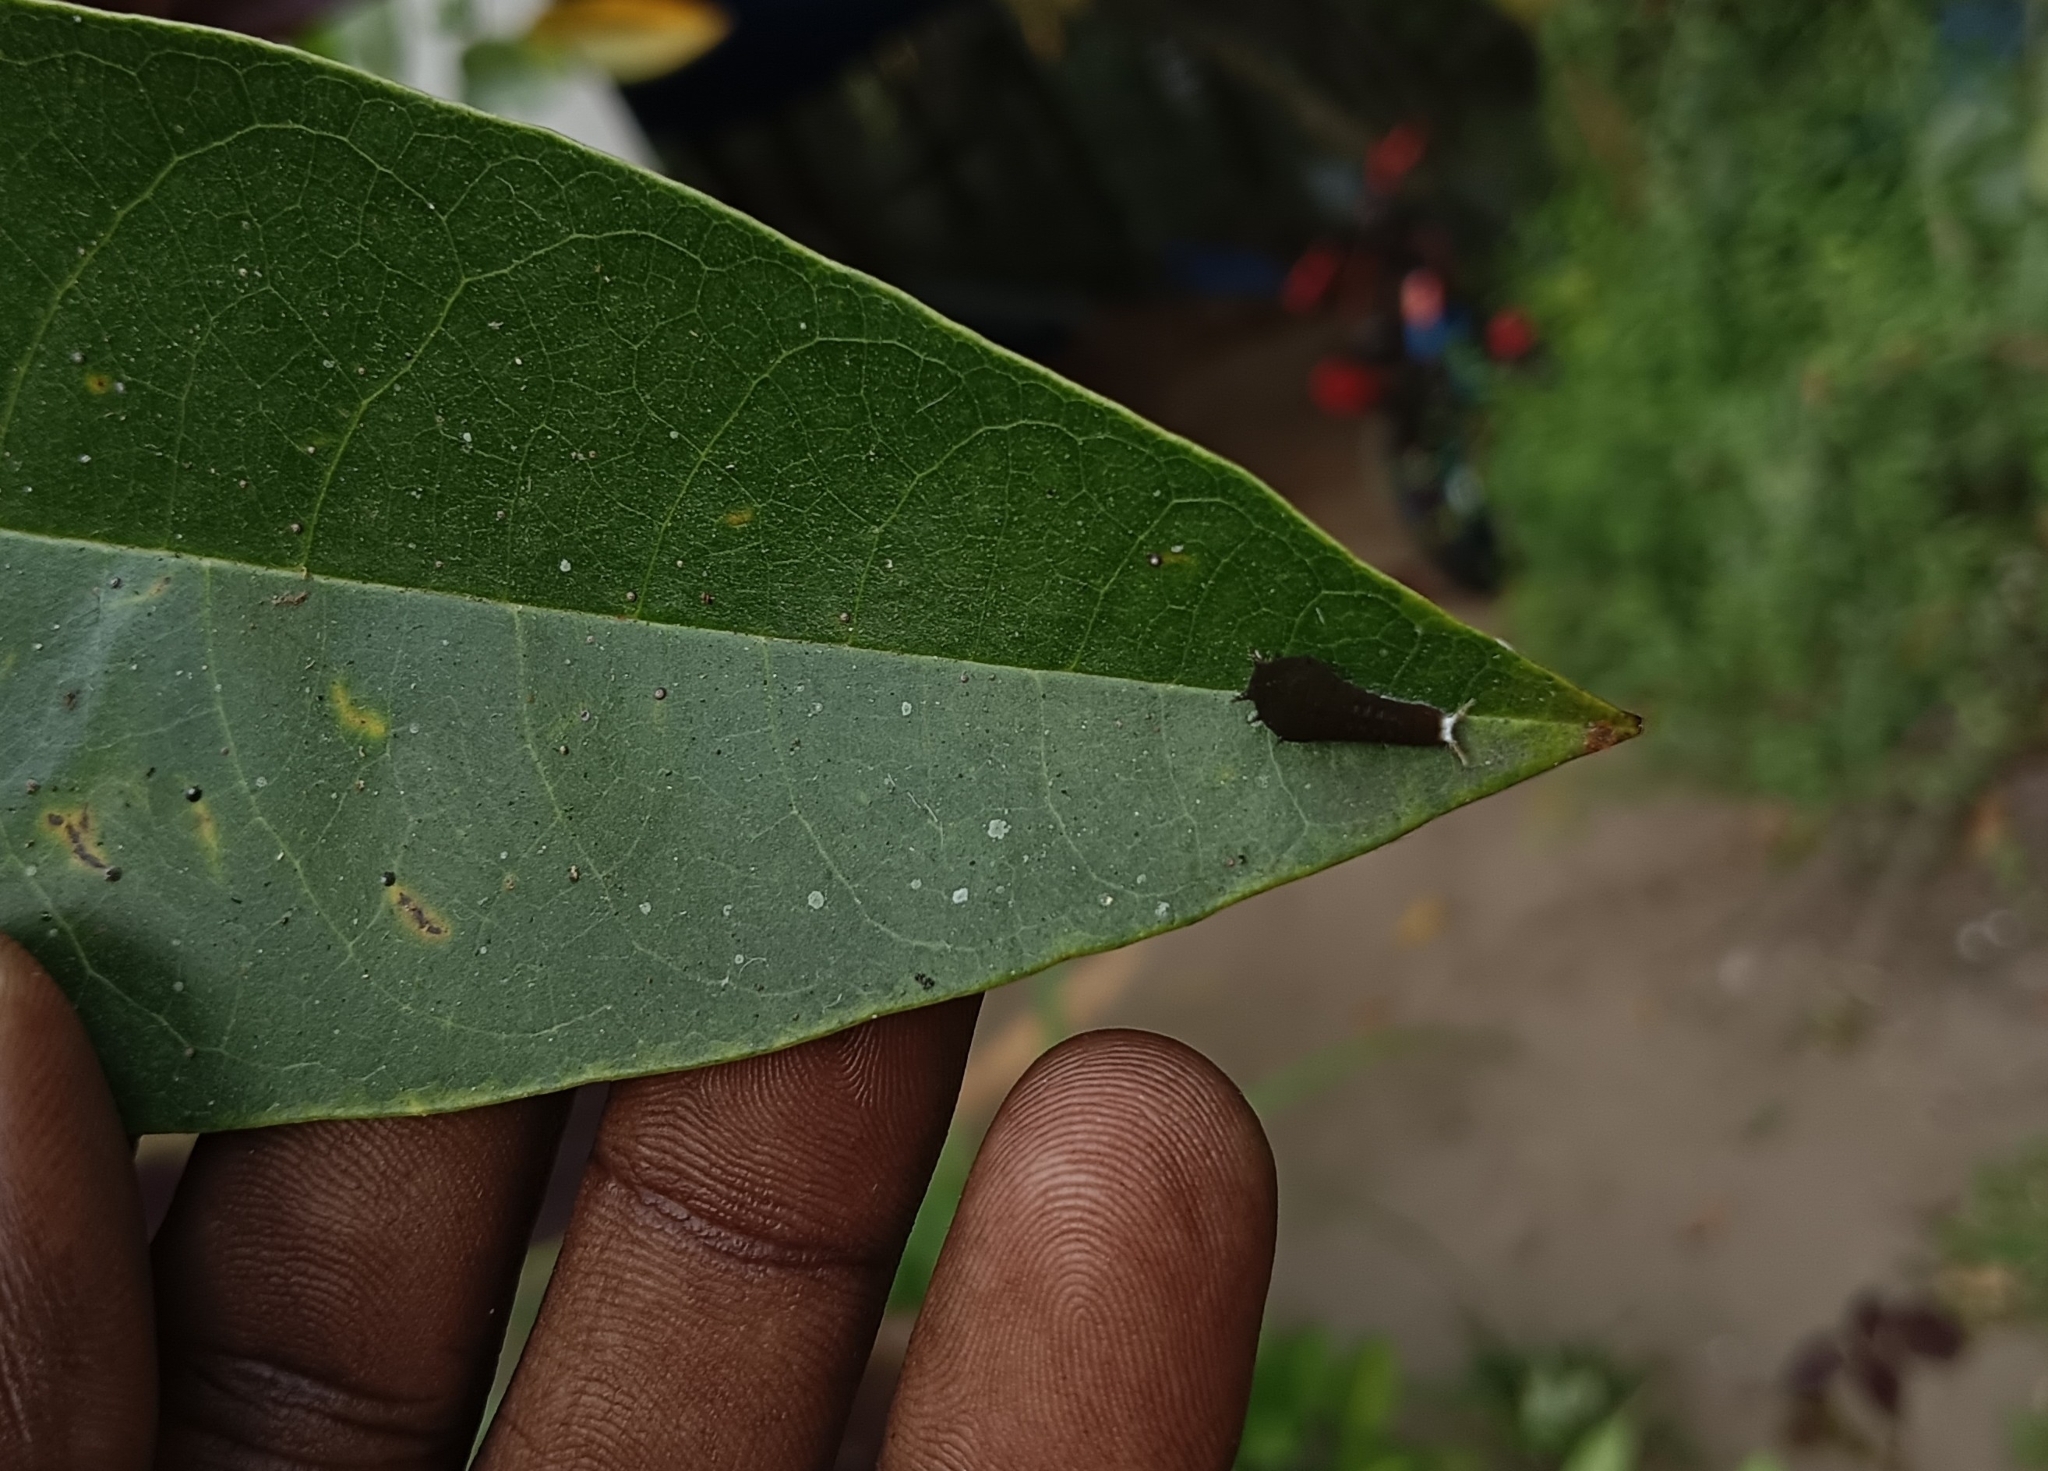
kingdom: Animalia
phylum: Arthropoda
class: Insecta
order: Lepidoptera
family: Papilionidae
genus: Graphium
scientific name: Graphium doson
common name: Common jay
